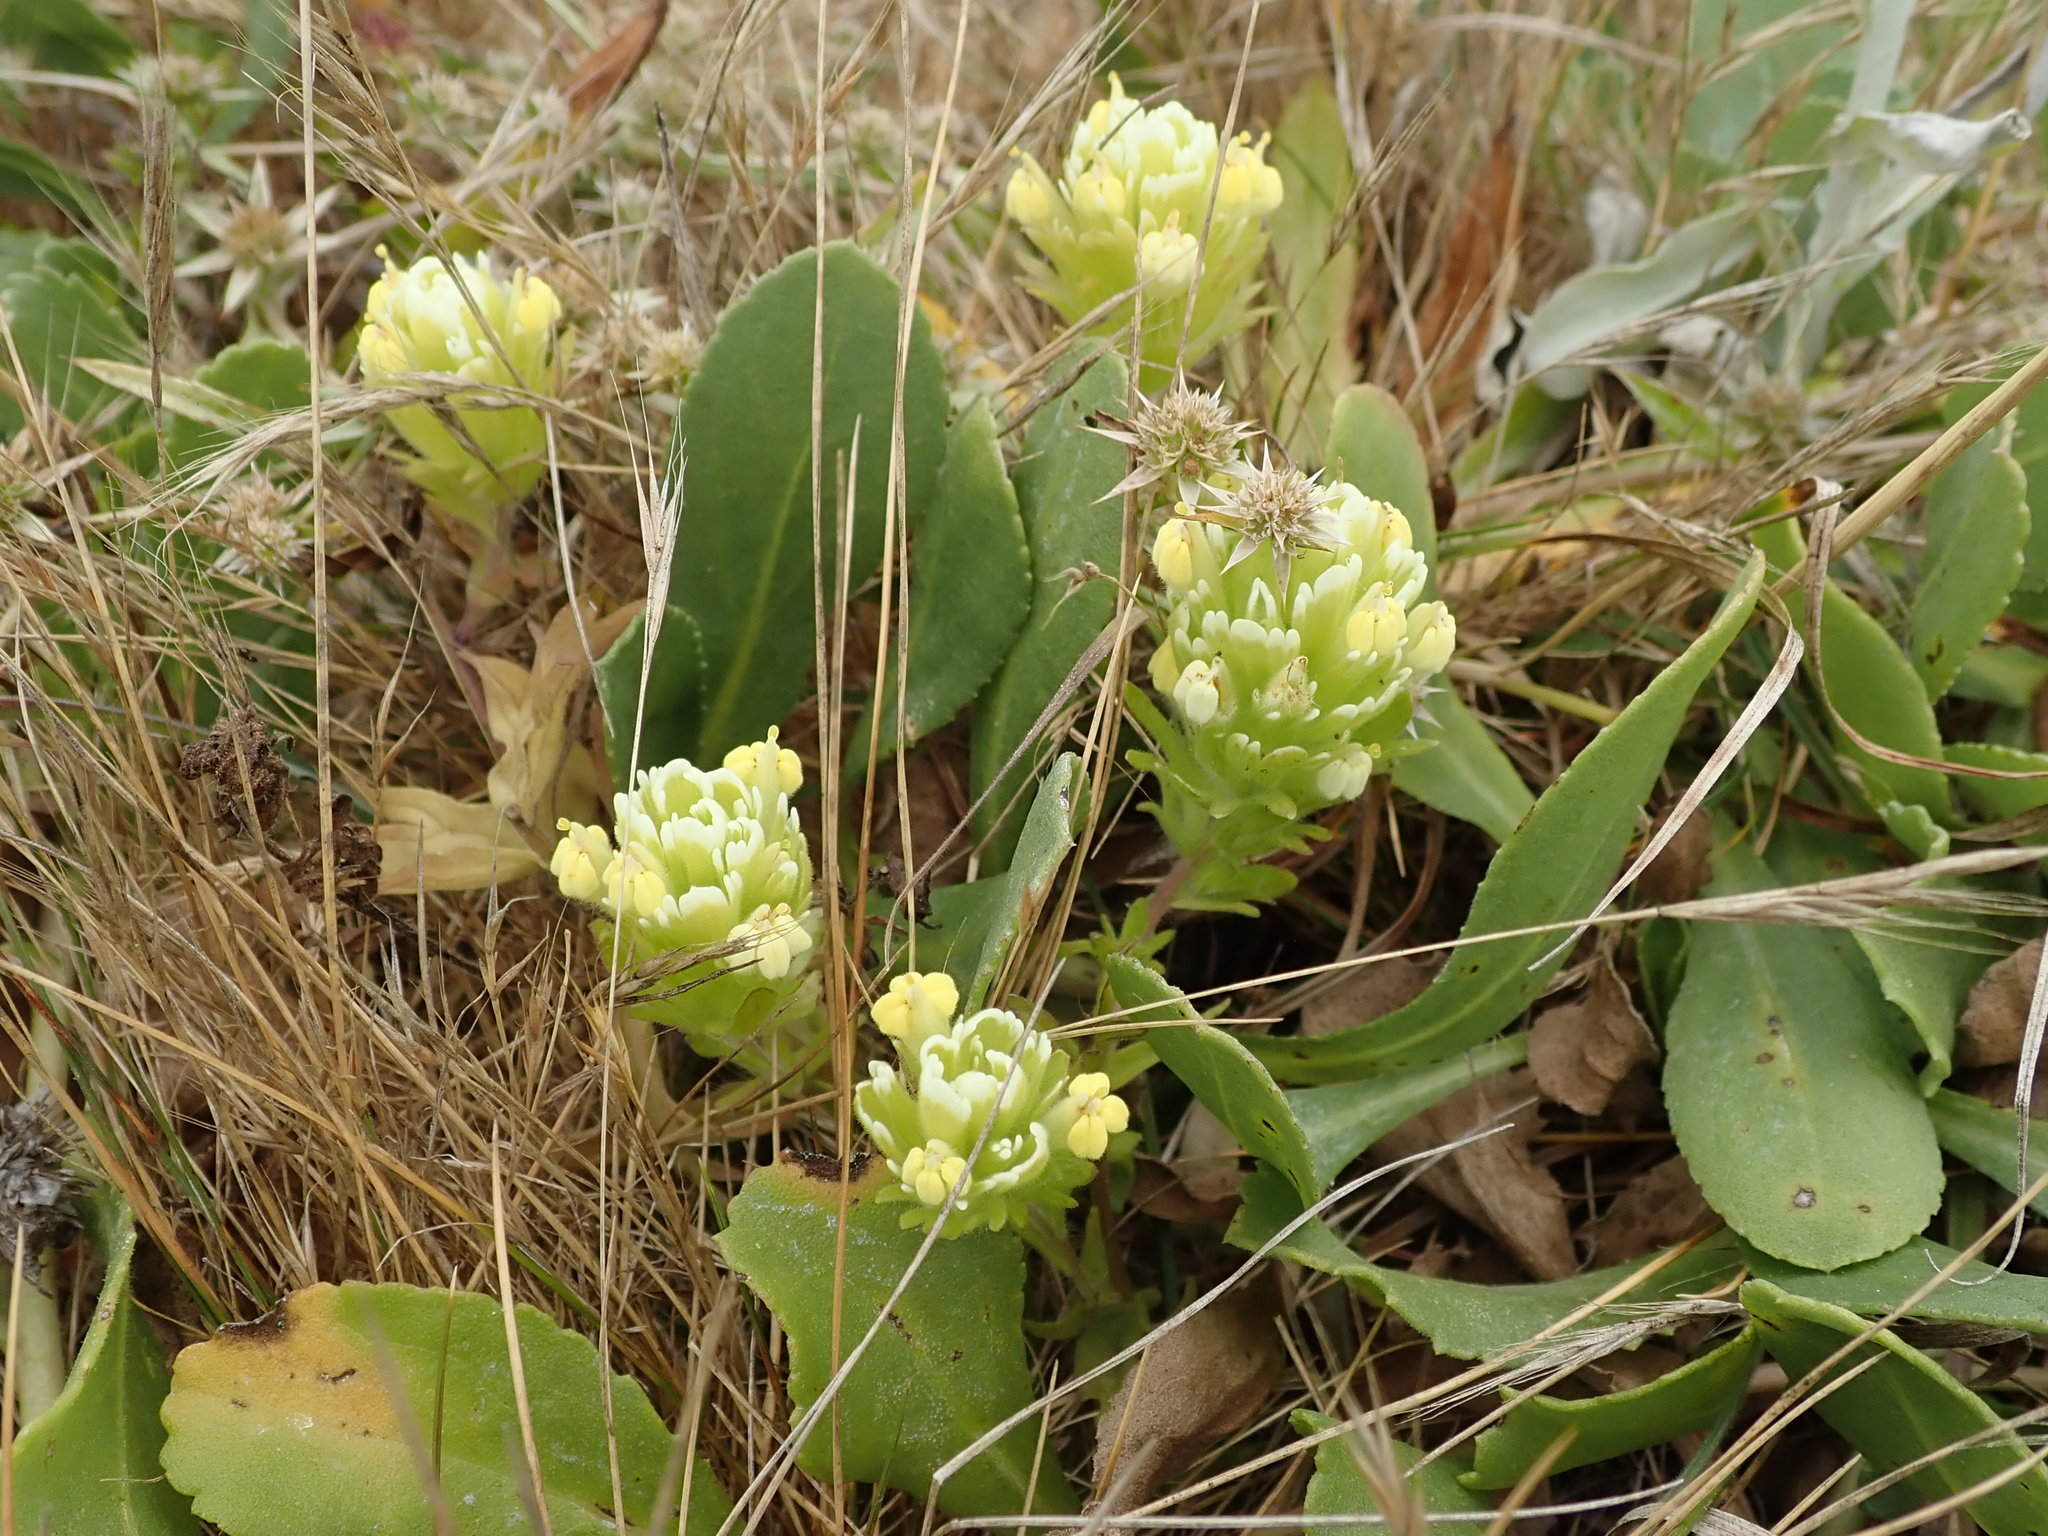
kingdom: Plantae
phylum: Tracheophyta
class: Magnoliopsida
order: Lamiales
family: Orobanchaceae
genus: Castilleja
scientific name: Castilleja ambigua
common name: Johnny-nip
